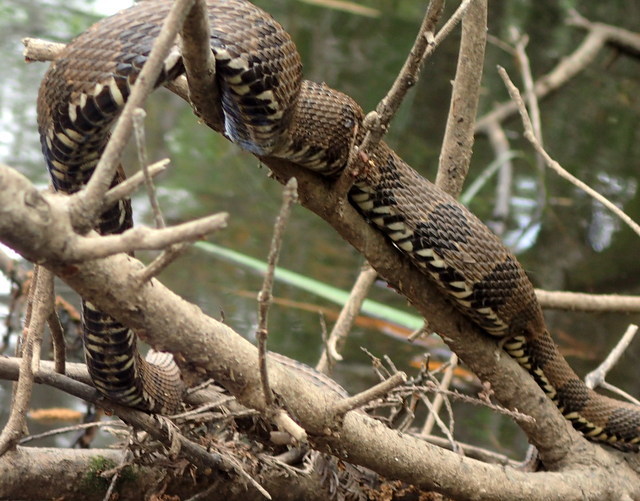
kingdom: Animalia
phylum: Chordata
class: Squamata
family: Colubridae
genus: Nerodia
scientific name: Nerodia taxispilota
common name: Brown water snake
